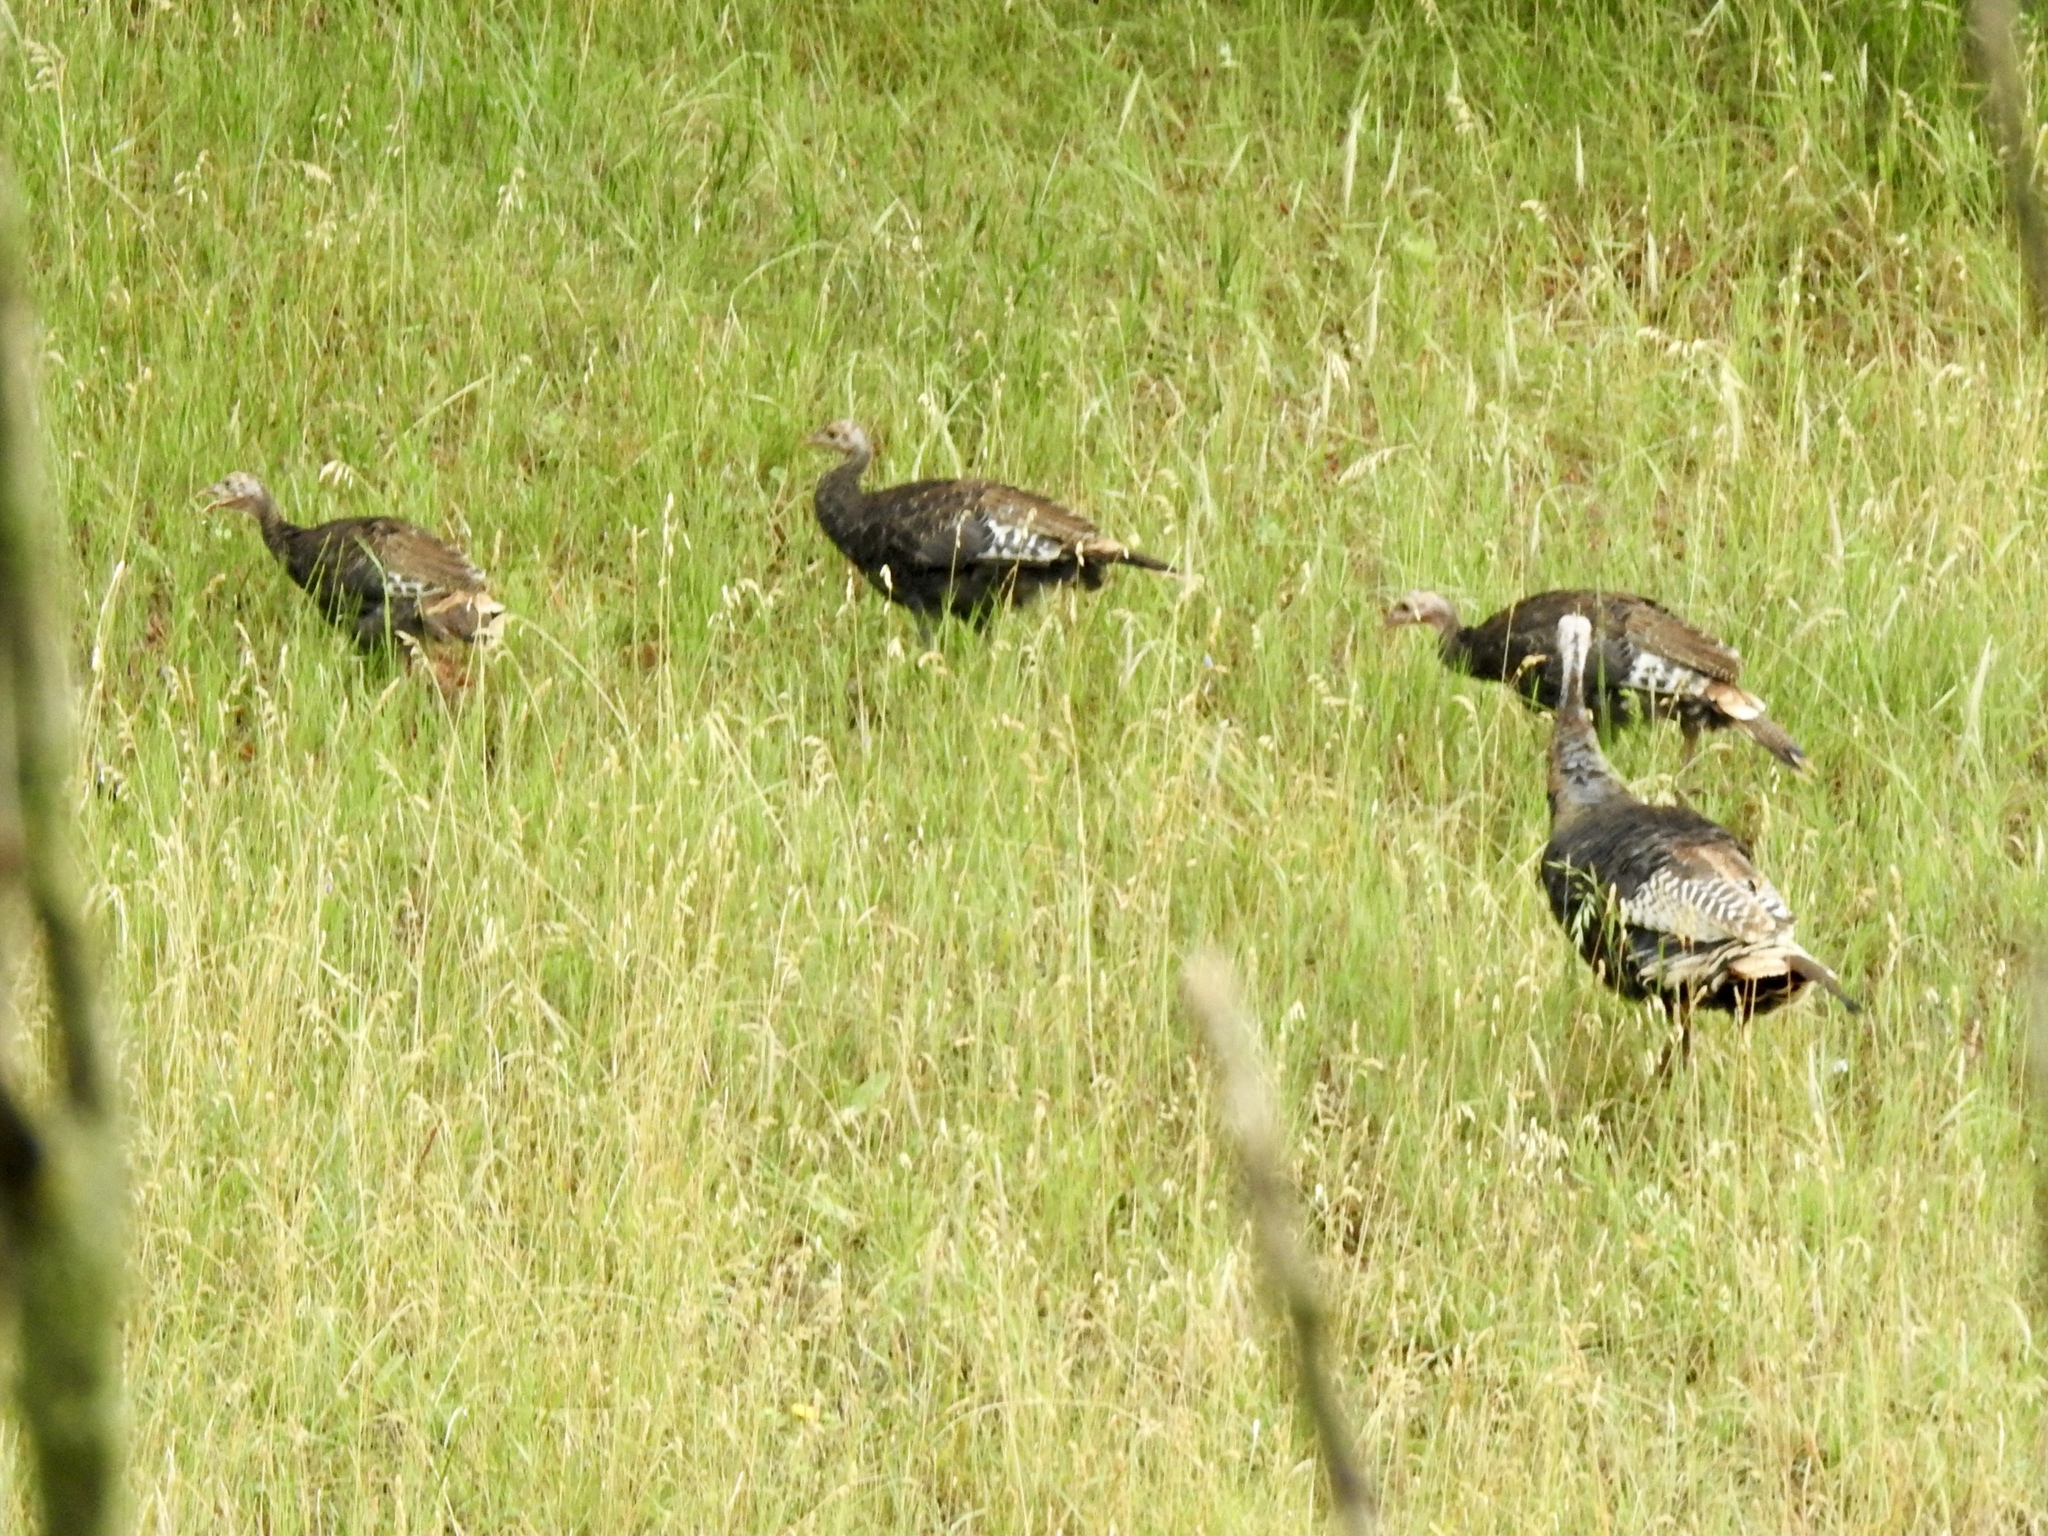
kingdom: Animalia
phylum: Chordata
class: Aves
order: Galliformes
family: Phasianidae
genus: Meleagris
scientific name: Meleagris gallopavo
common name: Wild turkey
